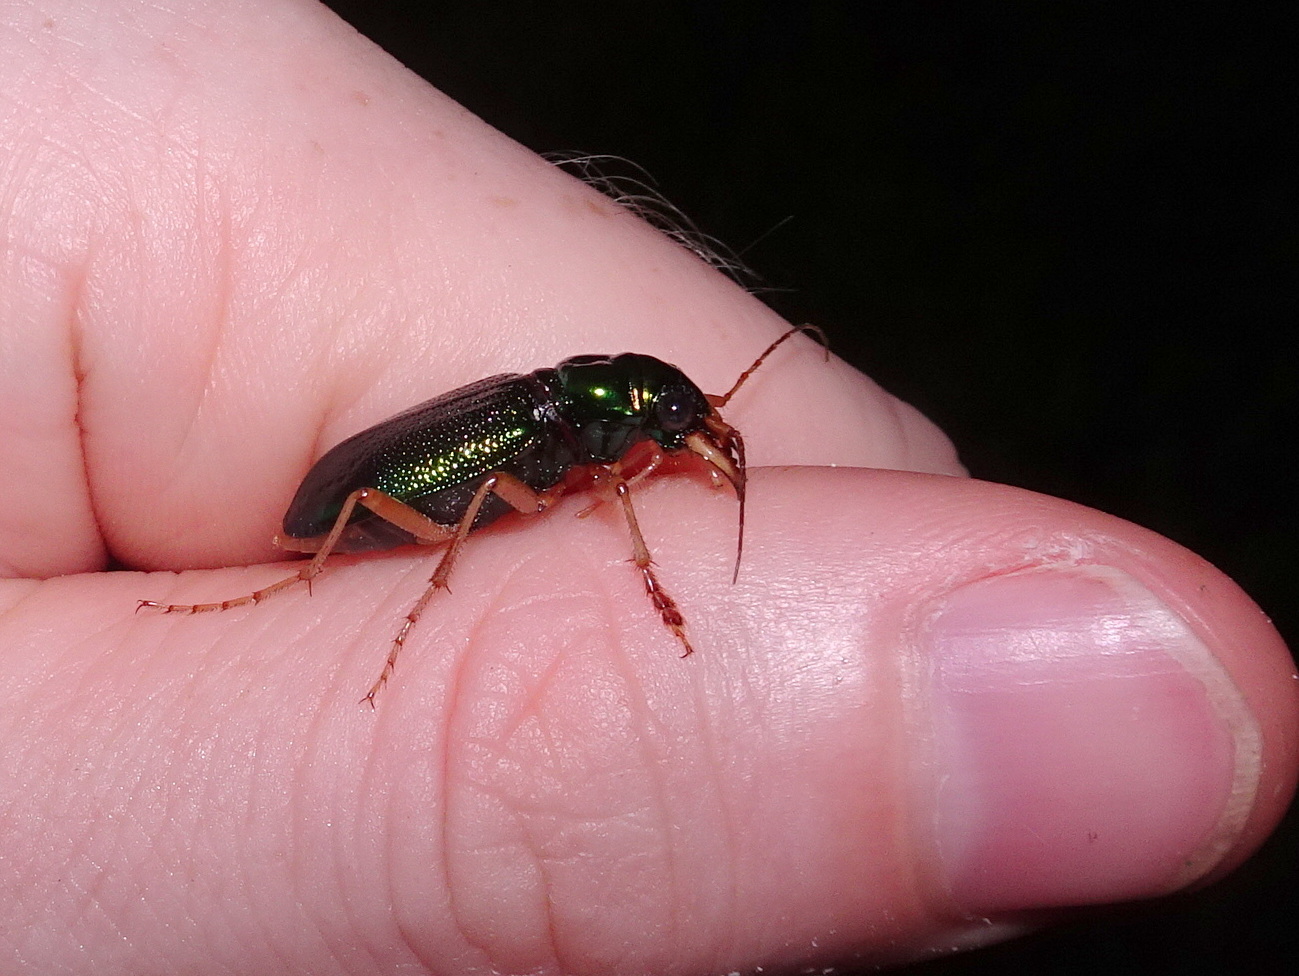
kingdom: Animalia
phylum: Arthropoda
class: Insecta
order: Coleoptera
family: Carabidae
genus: Tetracha
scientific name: Tetracha virginica
